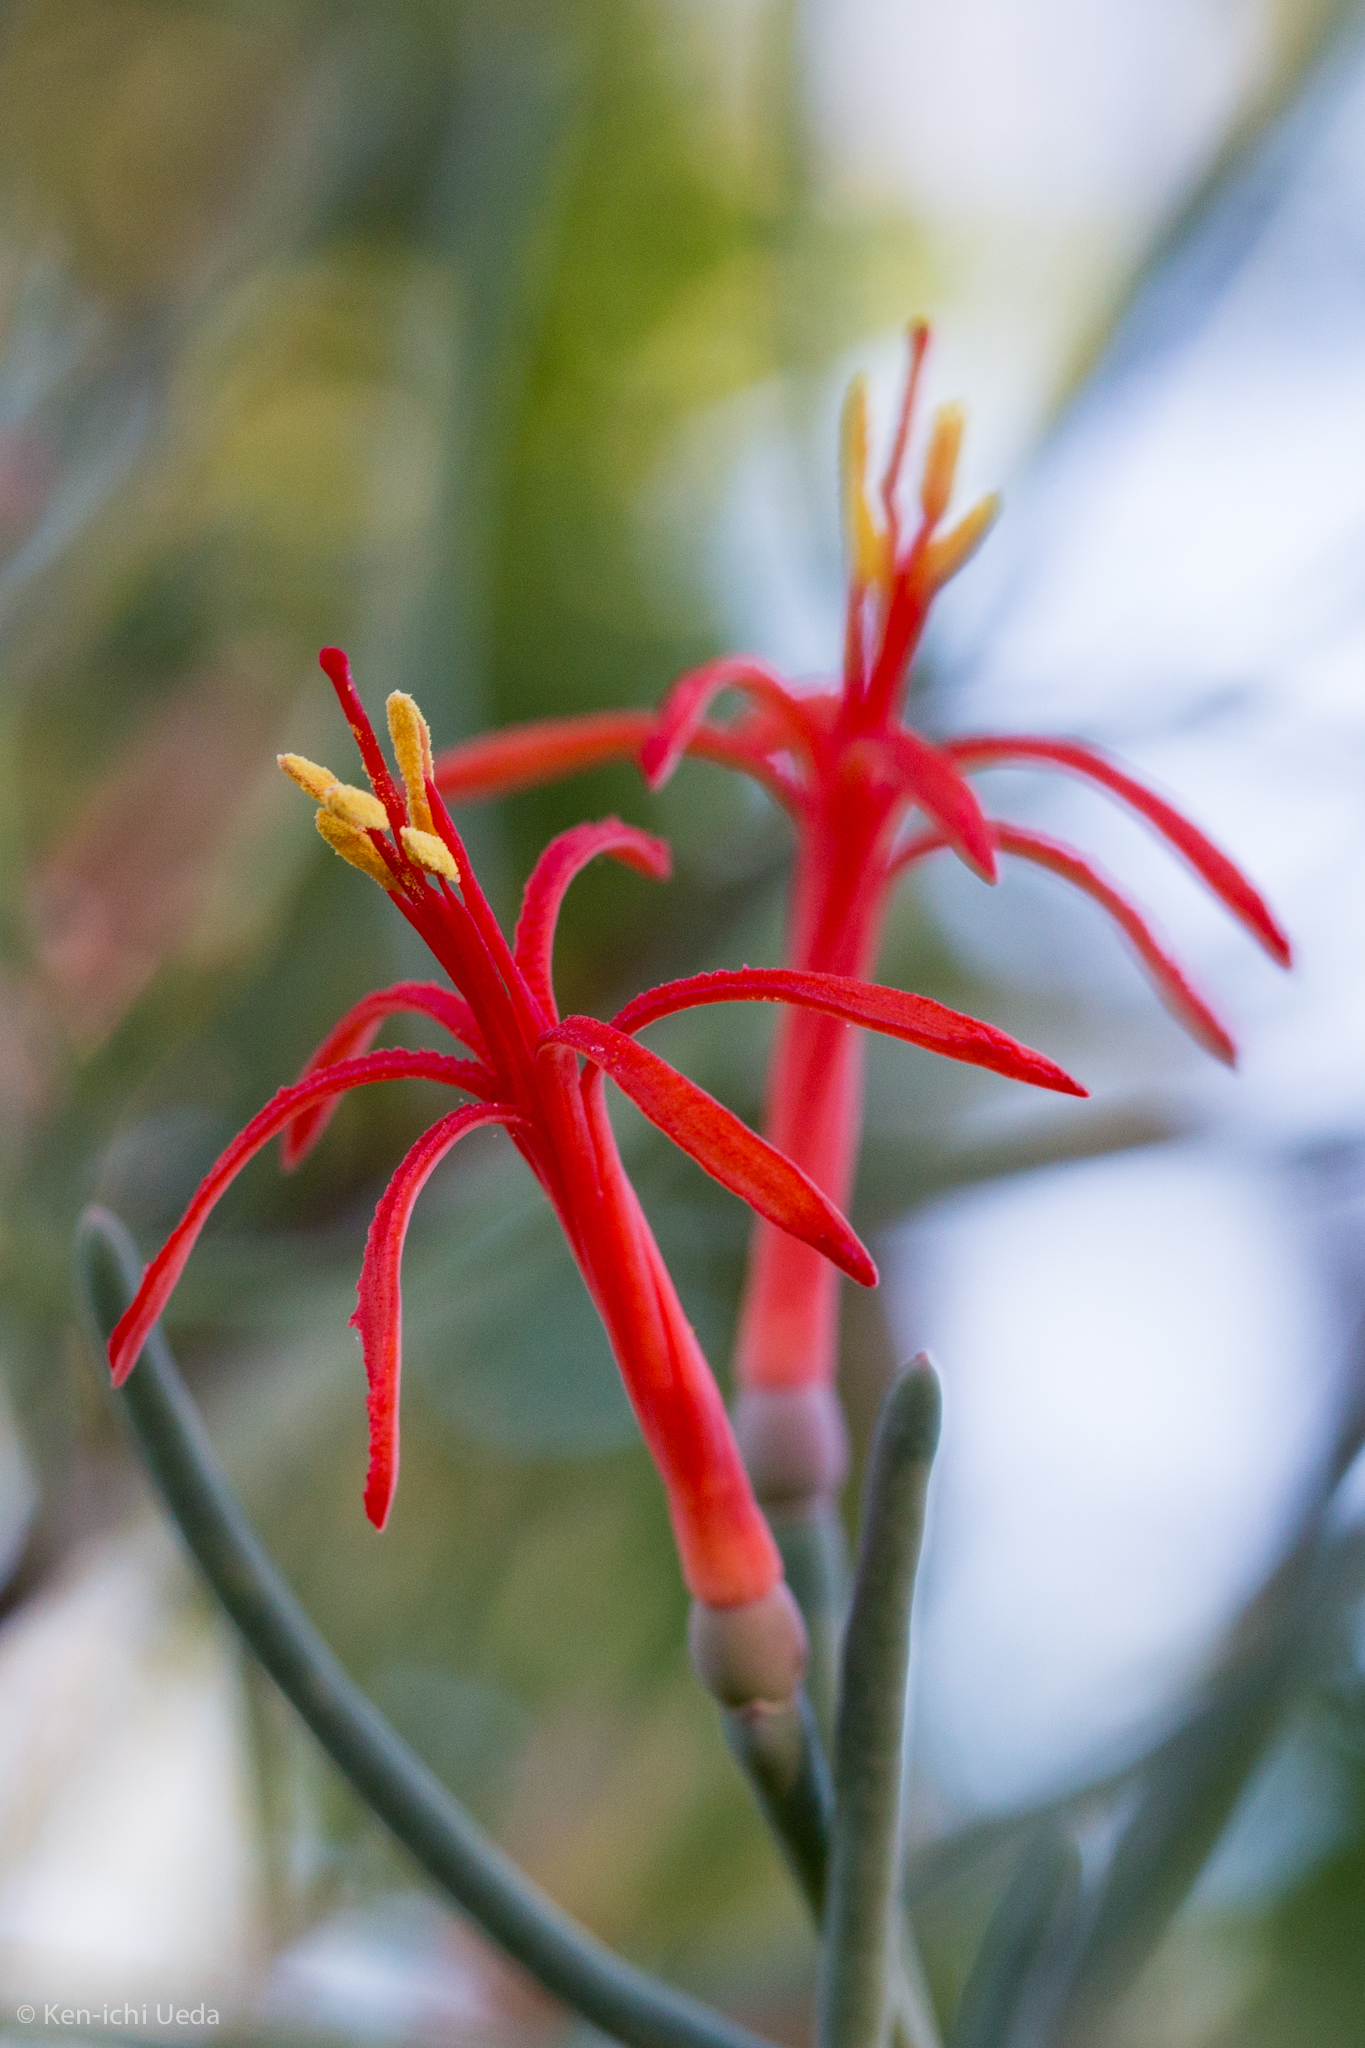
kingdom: Plantae
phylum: Tracheophyta
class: Magnoliopsida
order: Santalales
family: Loranthaceae
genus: Psittacanthus
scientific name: Psittacanthus sonorae
